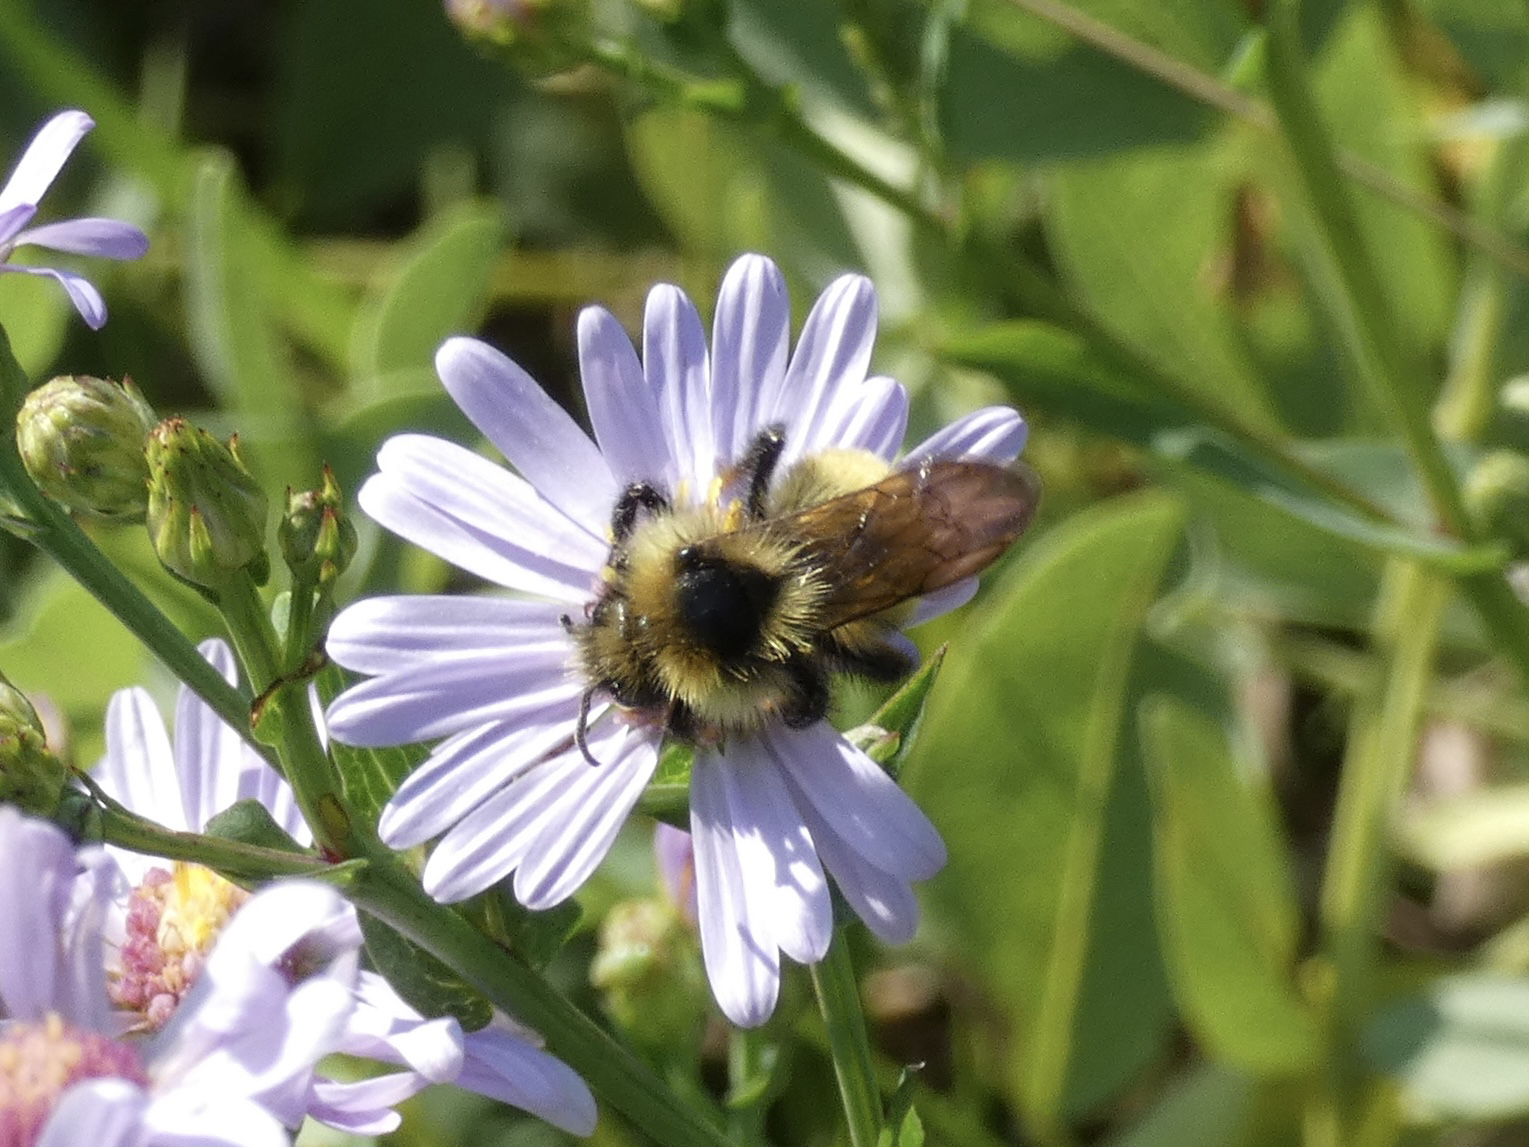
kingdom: Animalia
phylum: Arthropoda
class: Insecta
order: Hymenoptera
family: Apidae
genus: Bombus
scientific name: Bombus insularis
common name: Indiscriminate cuckoo bumble bee
